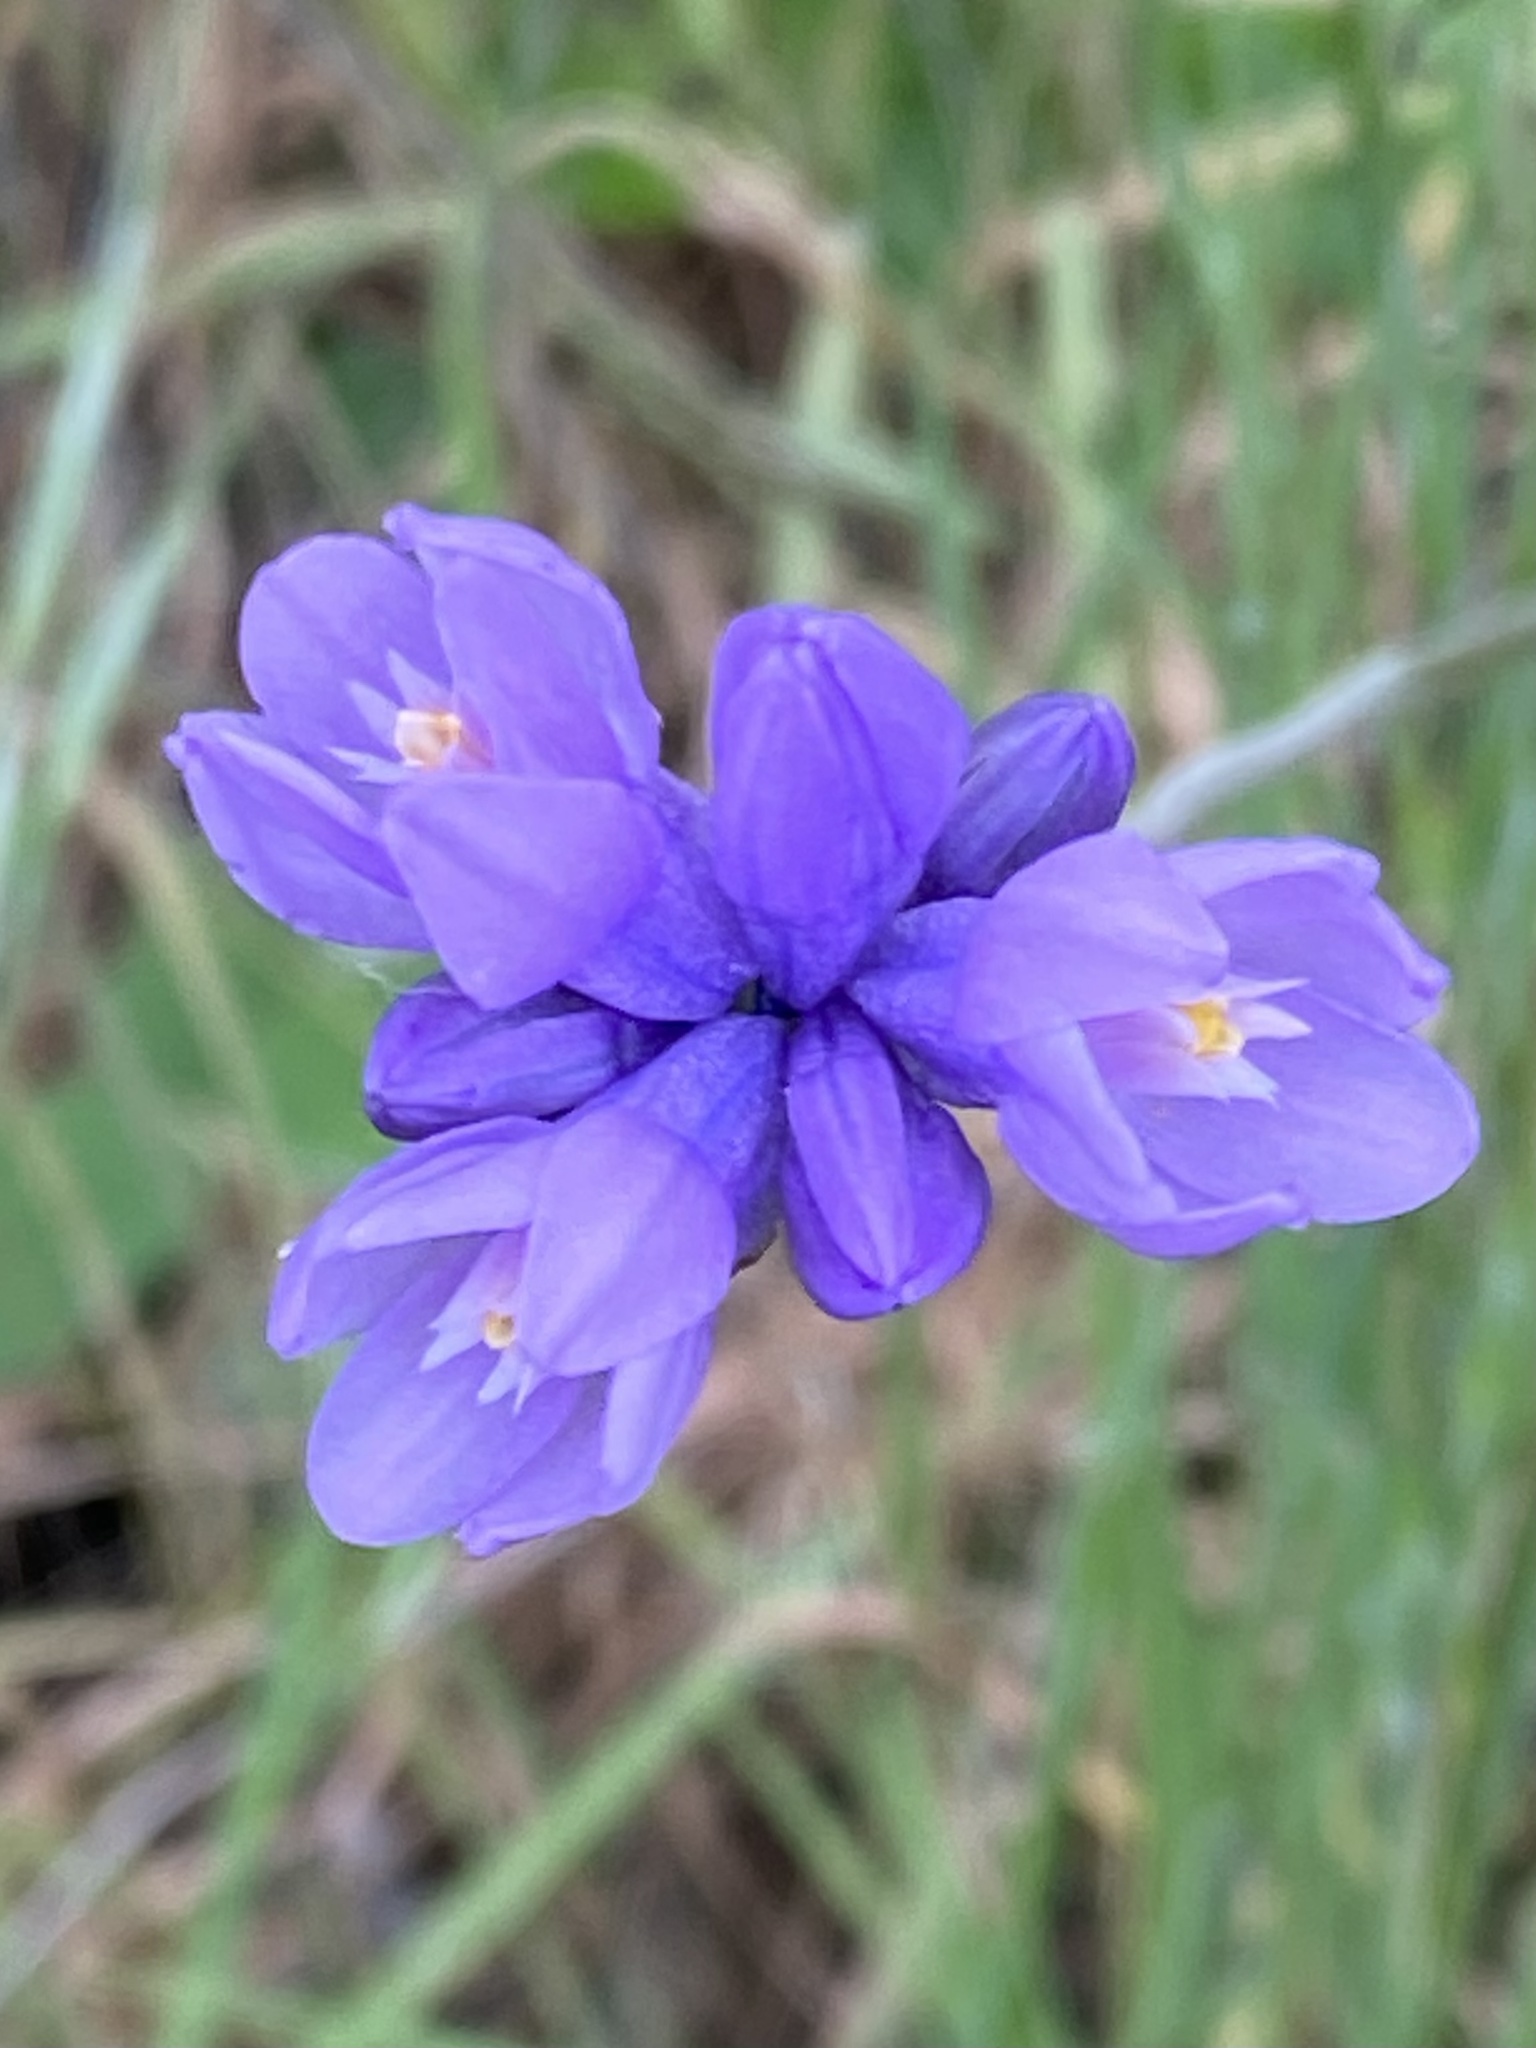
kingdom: Plantae
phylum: Tracheophyta
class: Liliopsida
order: Asparagales
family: Asparagaceae
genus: Dipterostemon
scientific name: Dipterostemon capitatus
